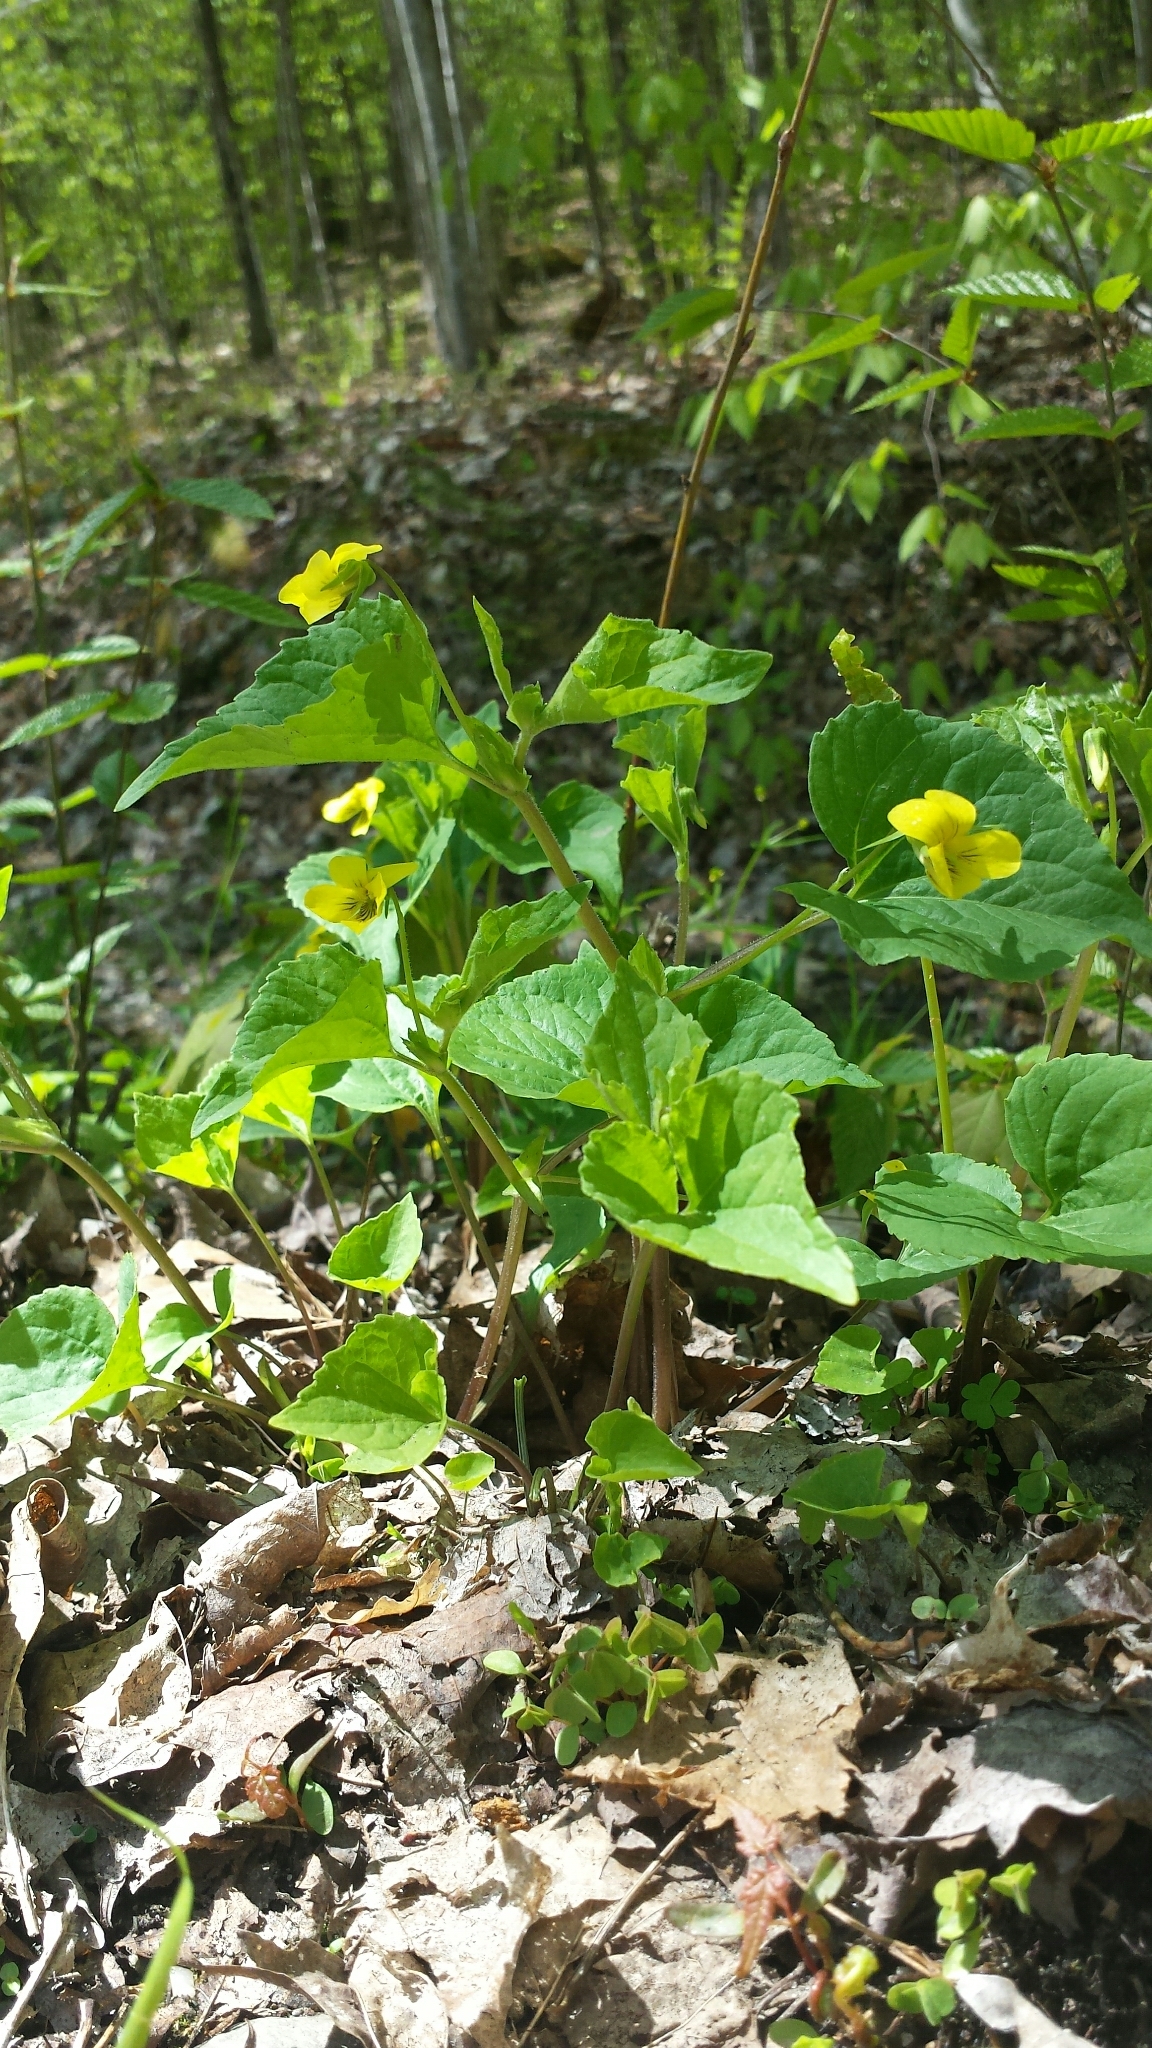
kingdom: Plantae
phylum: Tracheophyta
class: Magnoliopsida
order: Malpighiales
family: Violaceae
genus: Viola
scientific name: Viola eriocarpa
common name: Smooth yellow violet
